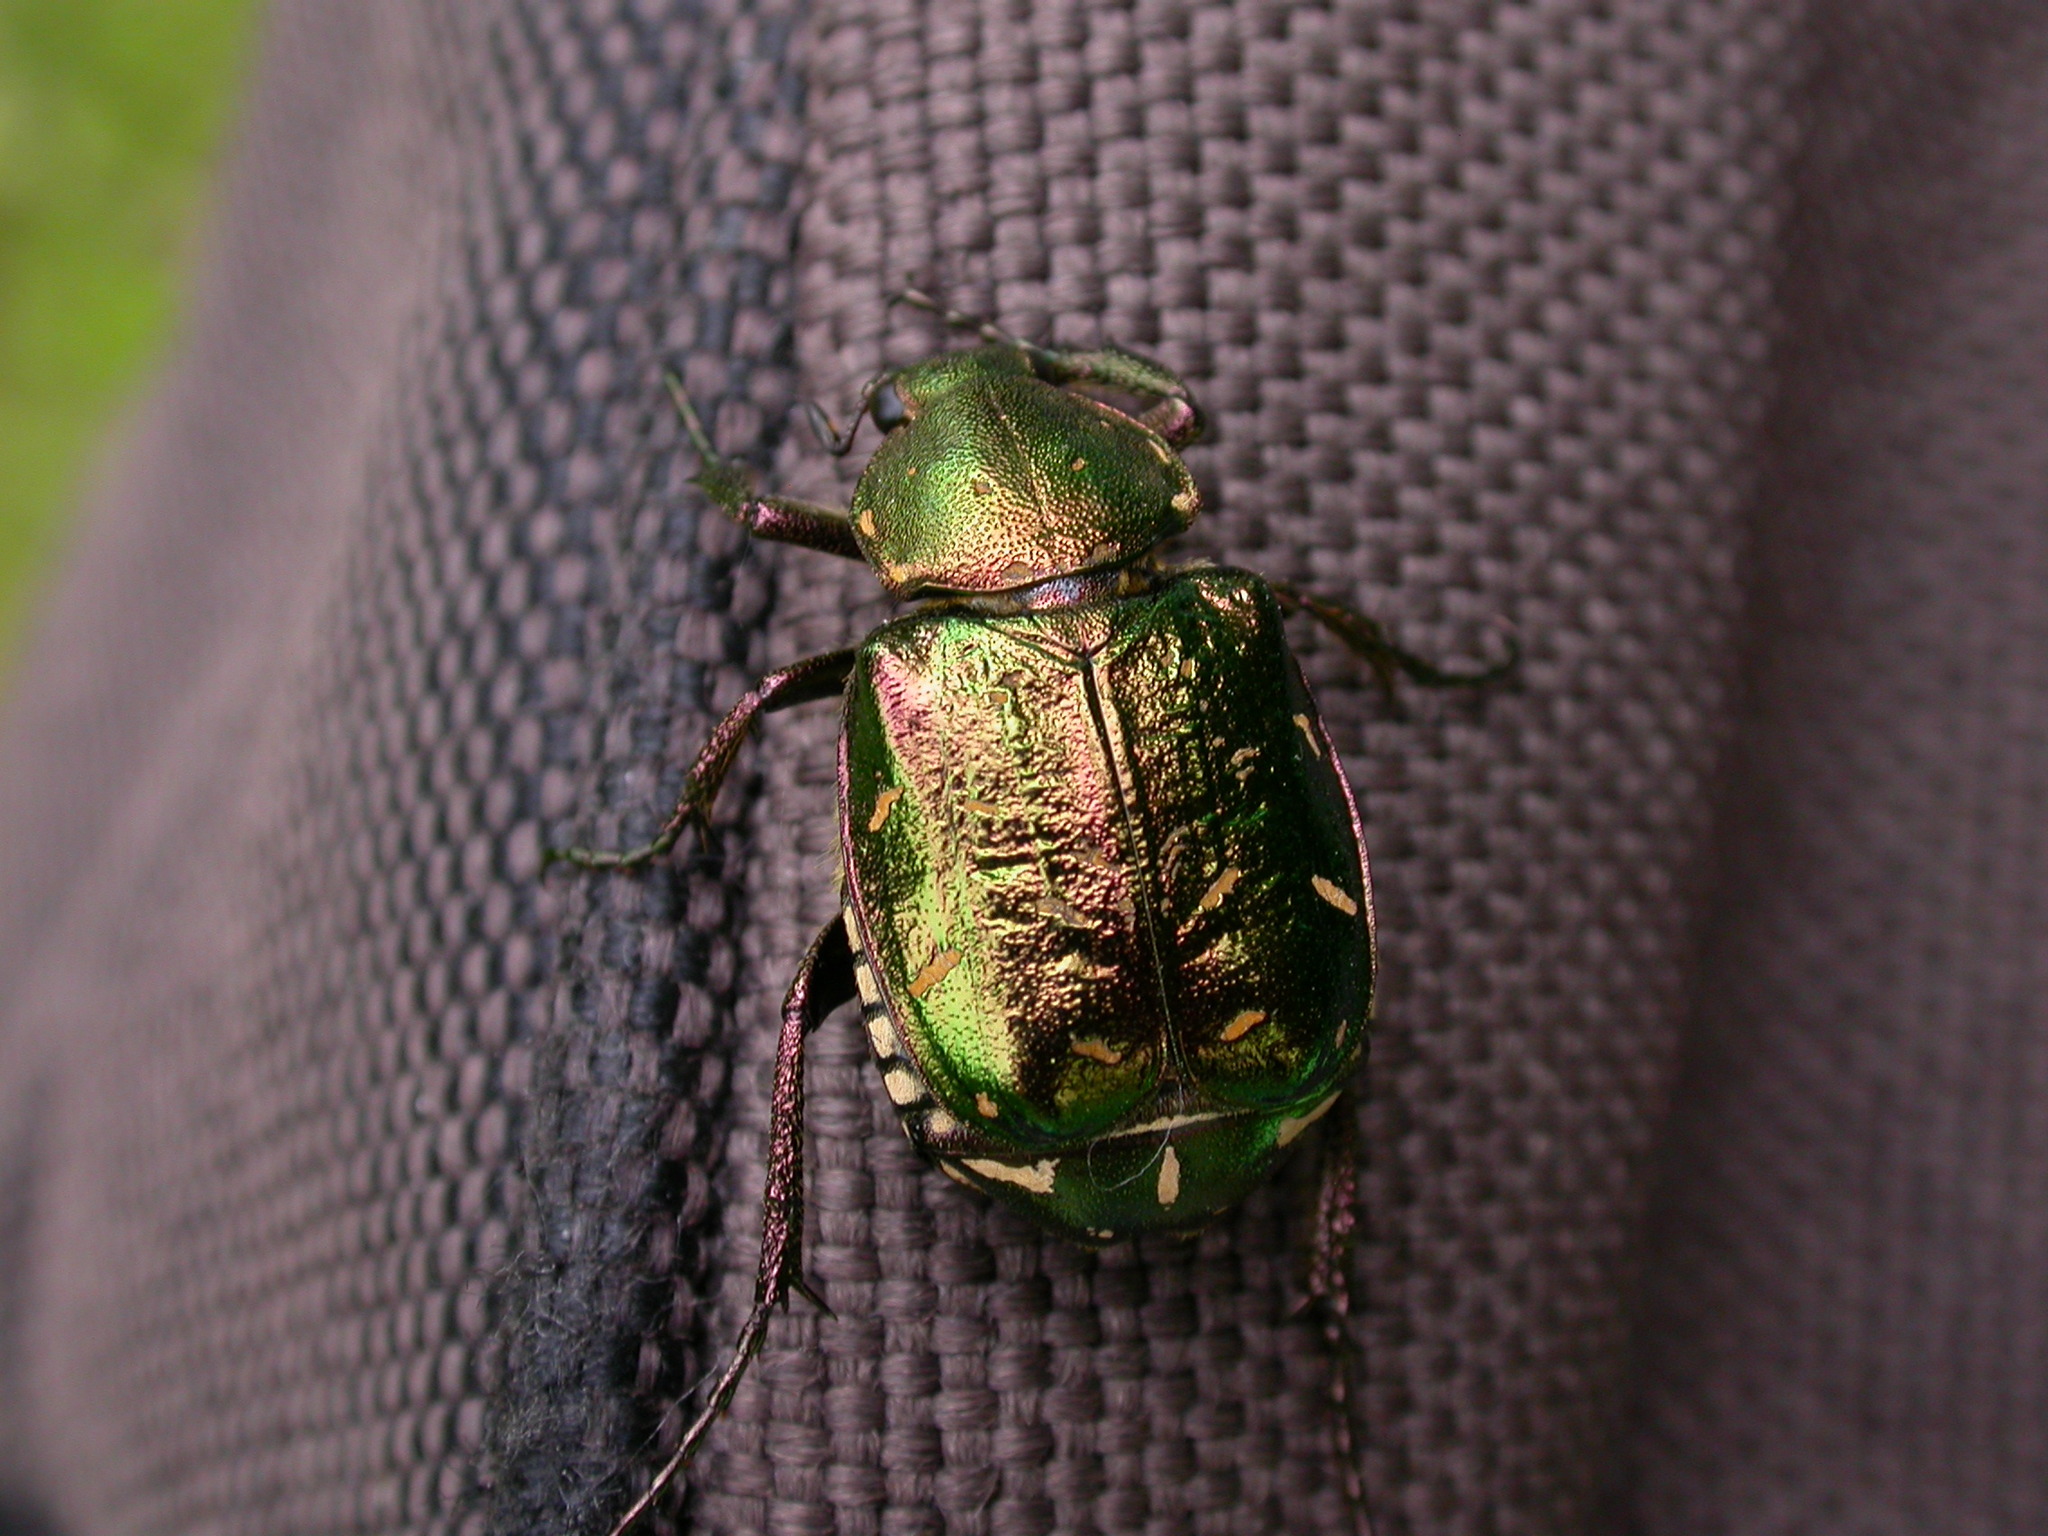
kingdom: Animalia
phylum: Arthropoda
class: Insecta
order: Coleoptera
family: Scarabaeidae
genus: Gnorimus
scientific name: Gnorimus nobilis
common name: Noble chafer
